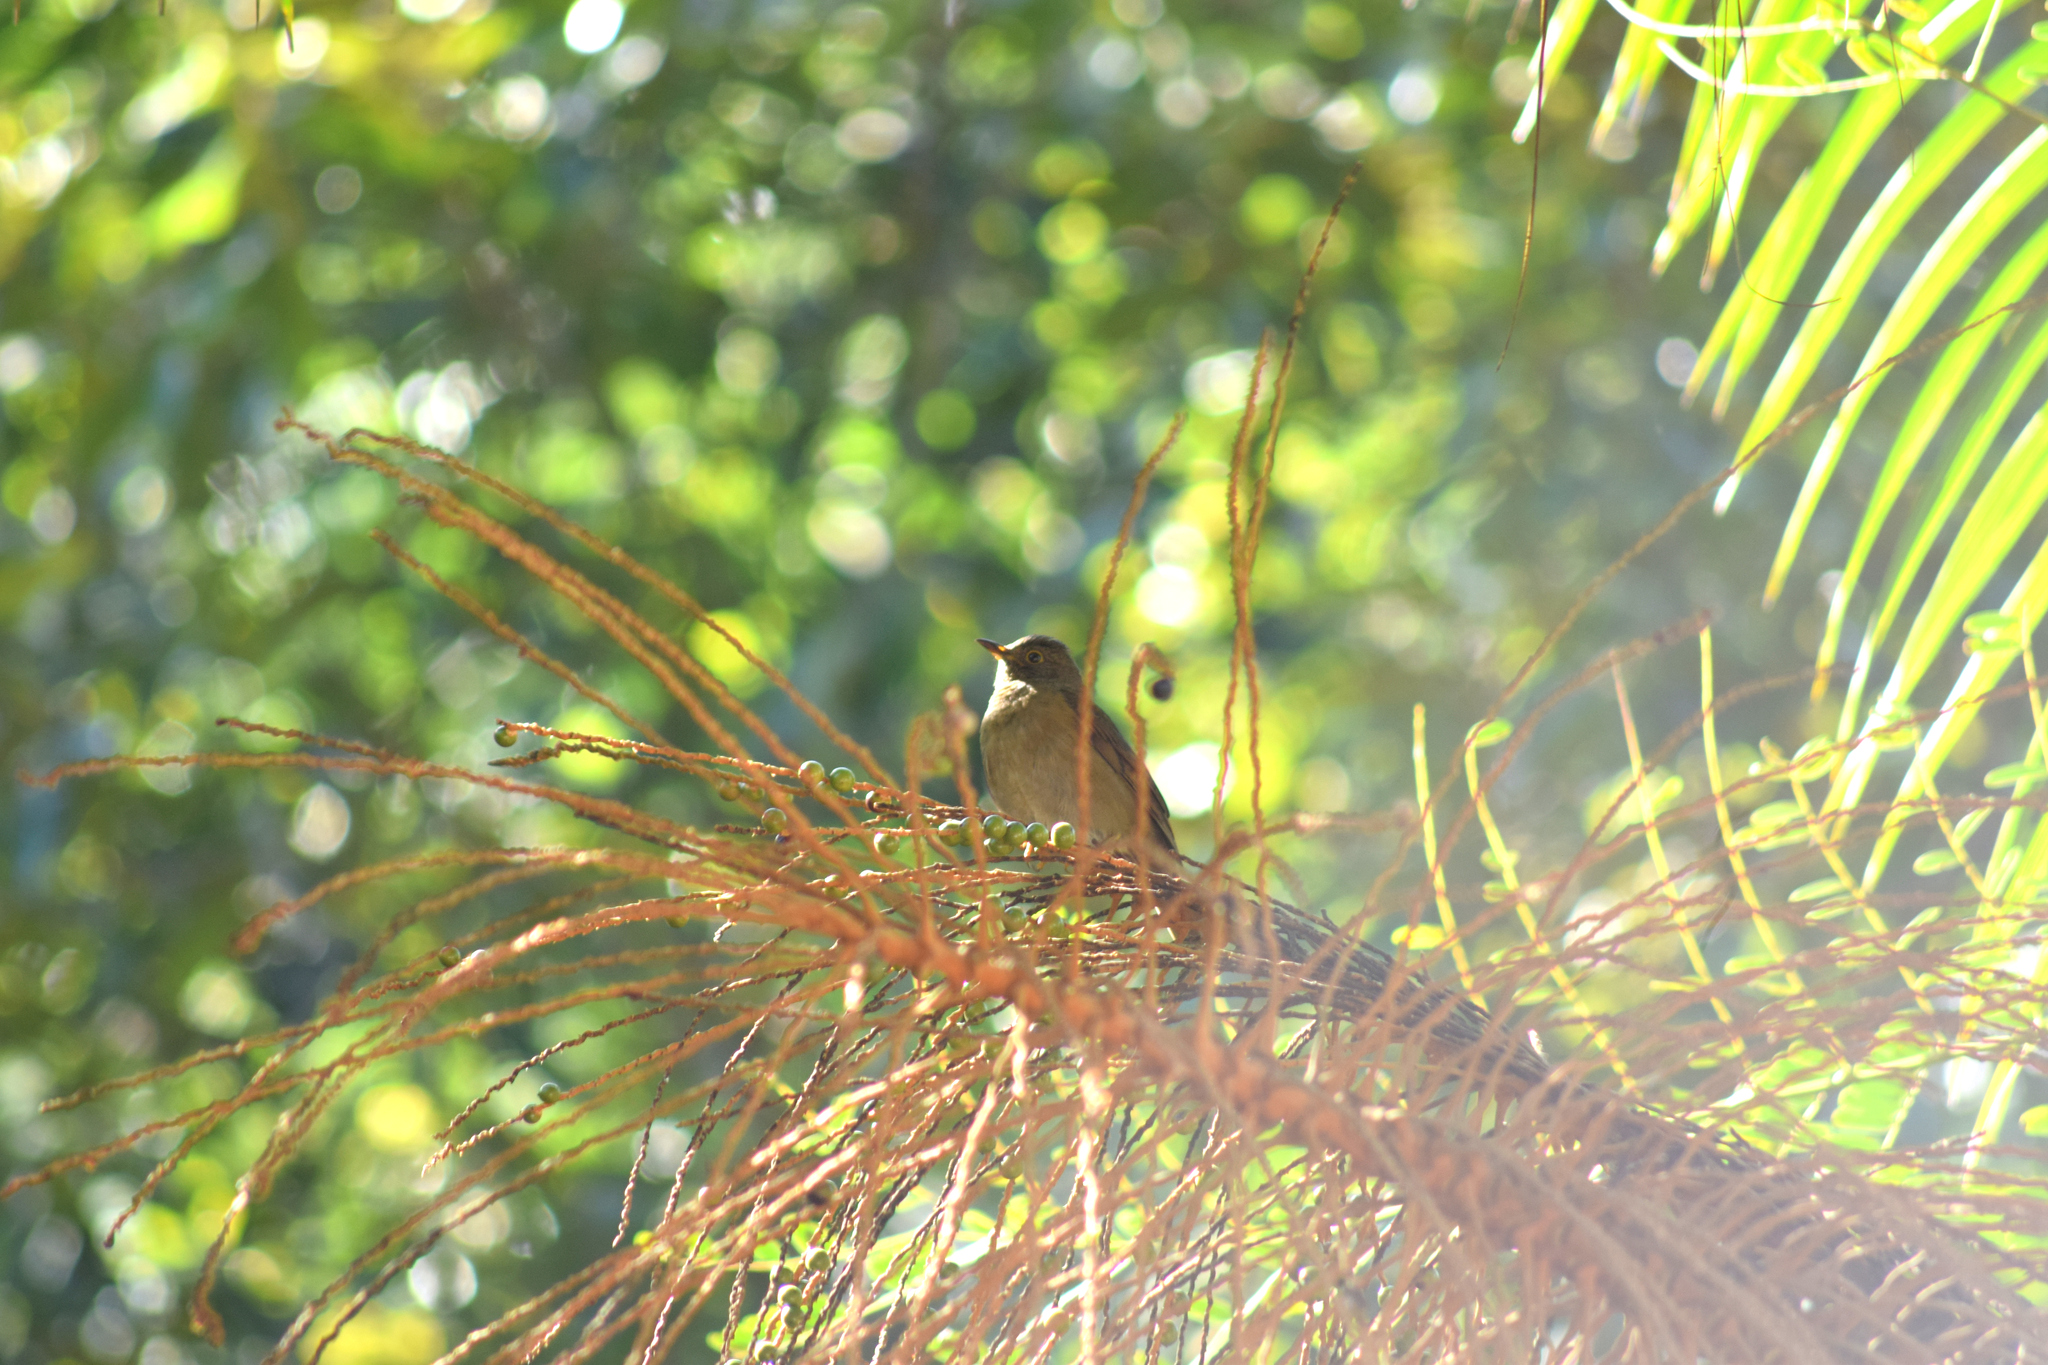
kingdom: Animalia
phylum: Chordata
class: Aves
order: Passeriformes
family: Turdidae
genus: Turdus
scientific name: Turdus flavipes
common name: Yellow-legged thrush
